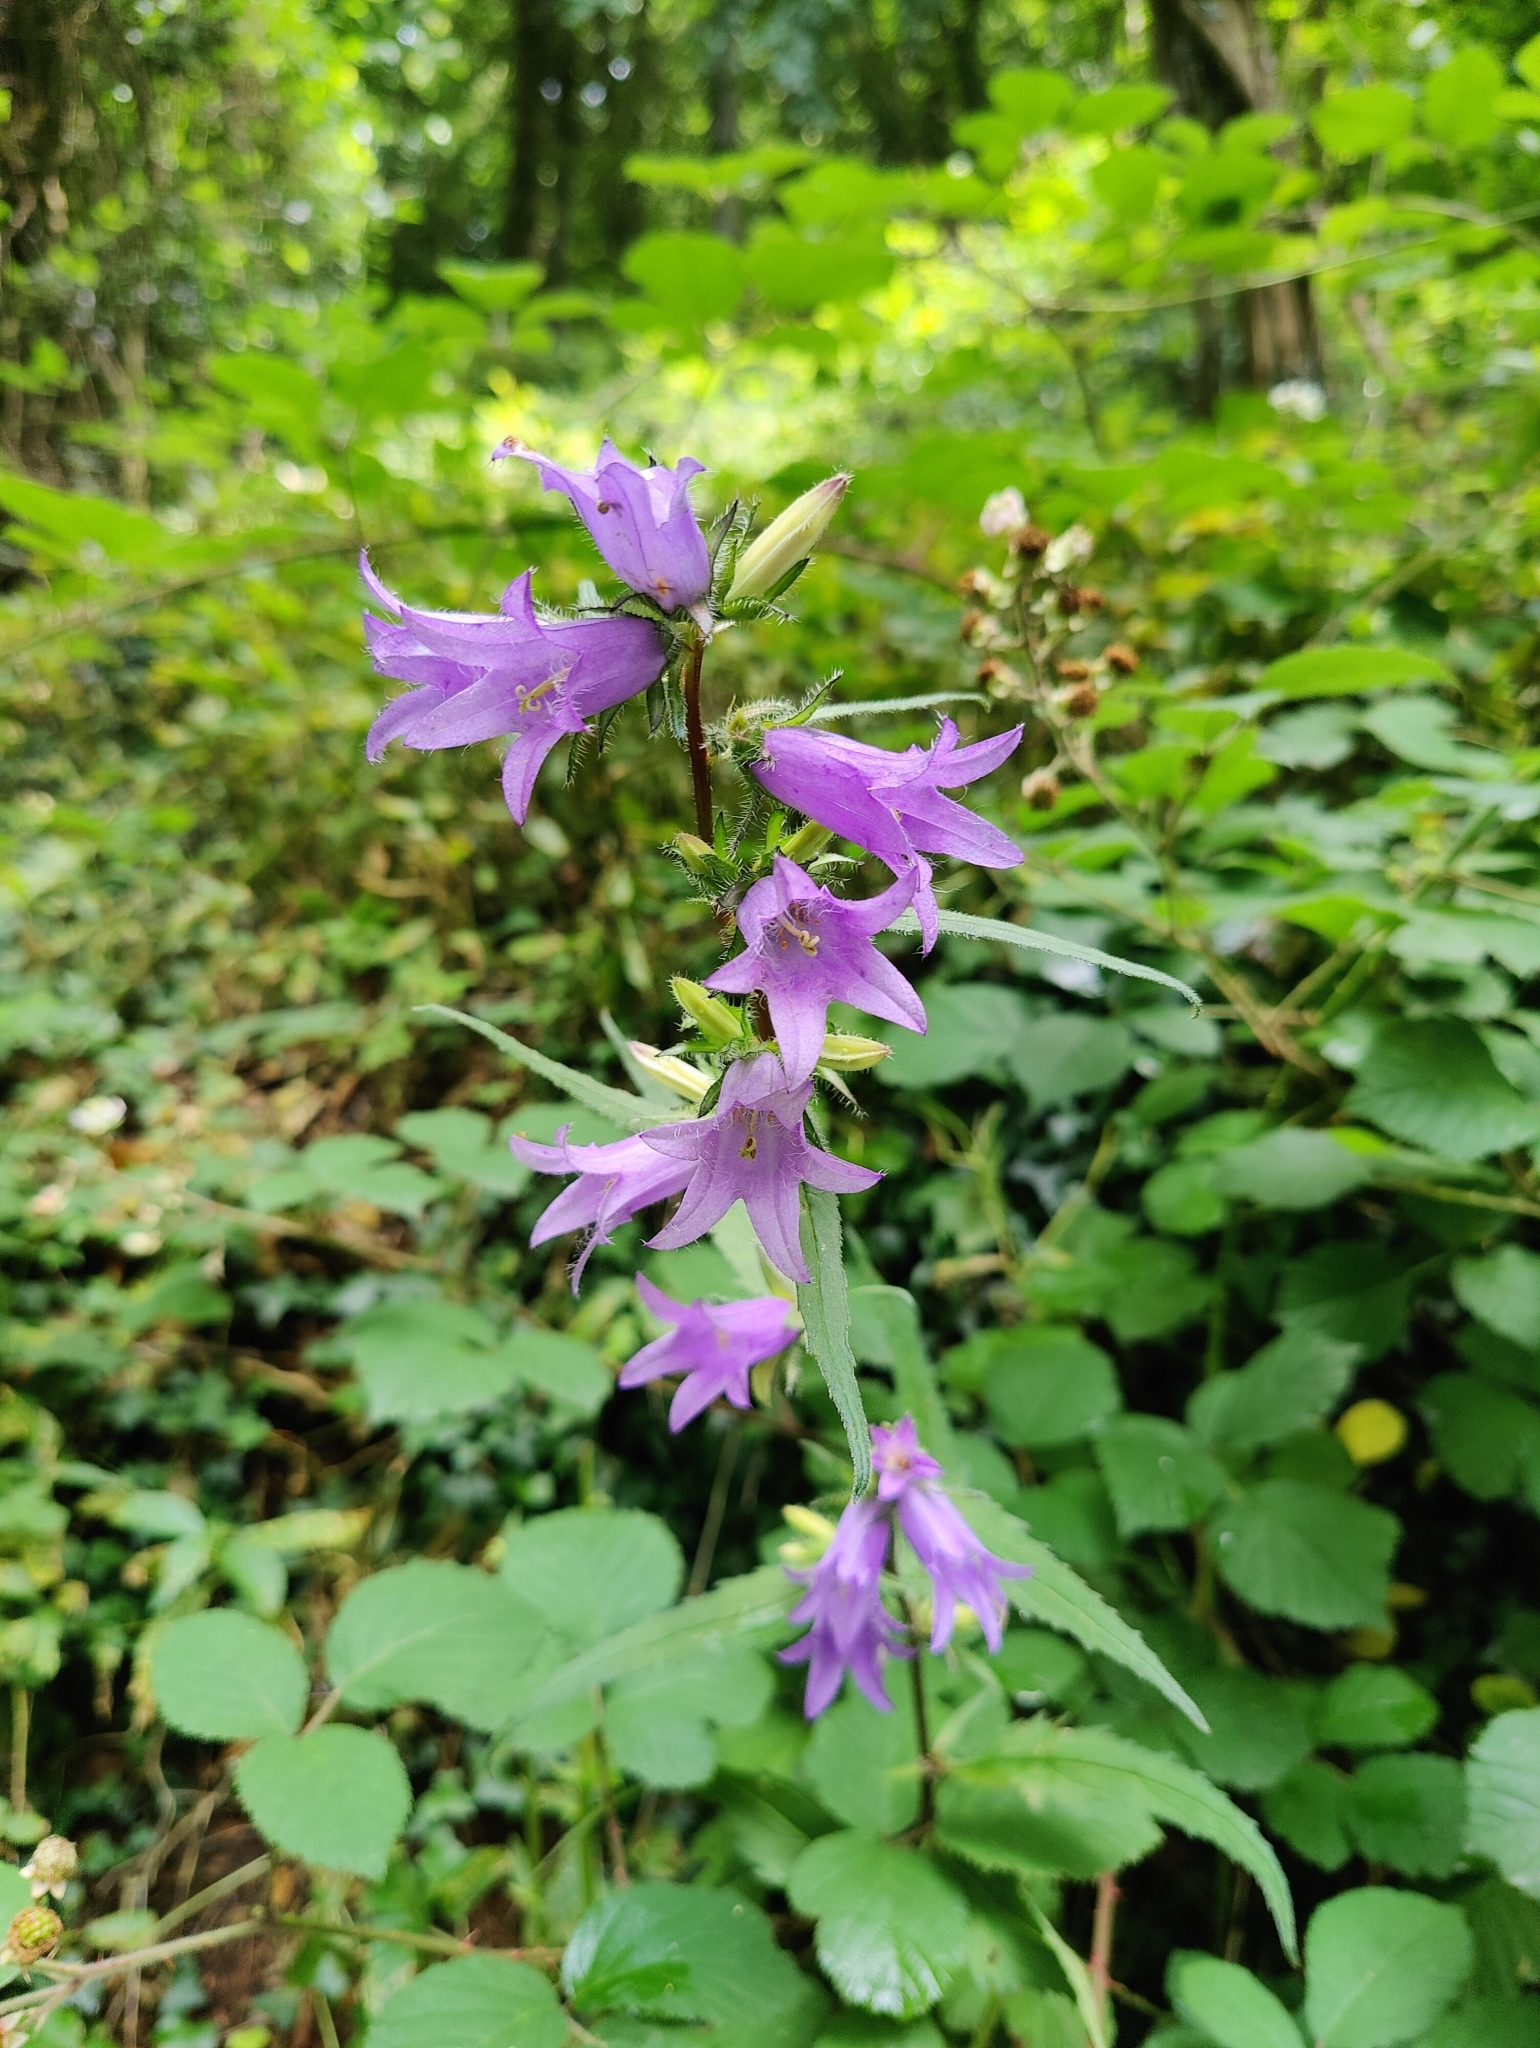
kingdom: Plantae
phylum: Tracheophyta
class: Magnoliopsida
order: Asterales
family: Campanulaceae
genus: Campanula
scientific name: Campanula trachelium
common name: Nettle-leaved bellflower
